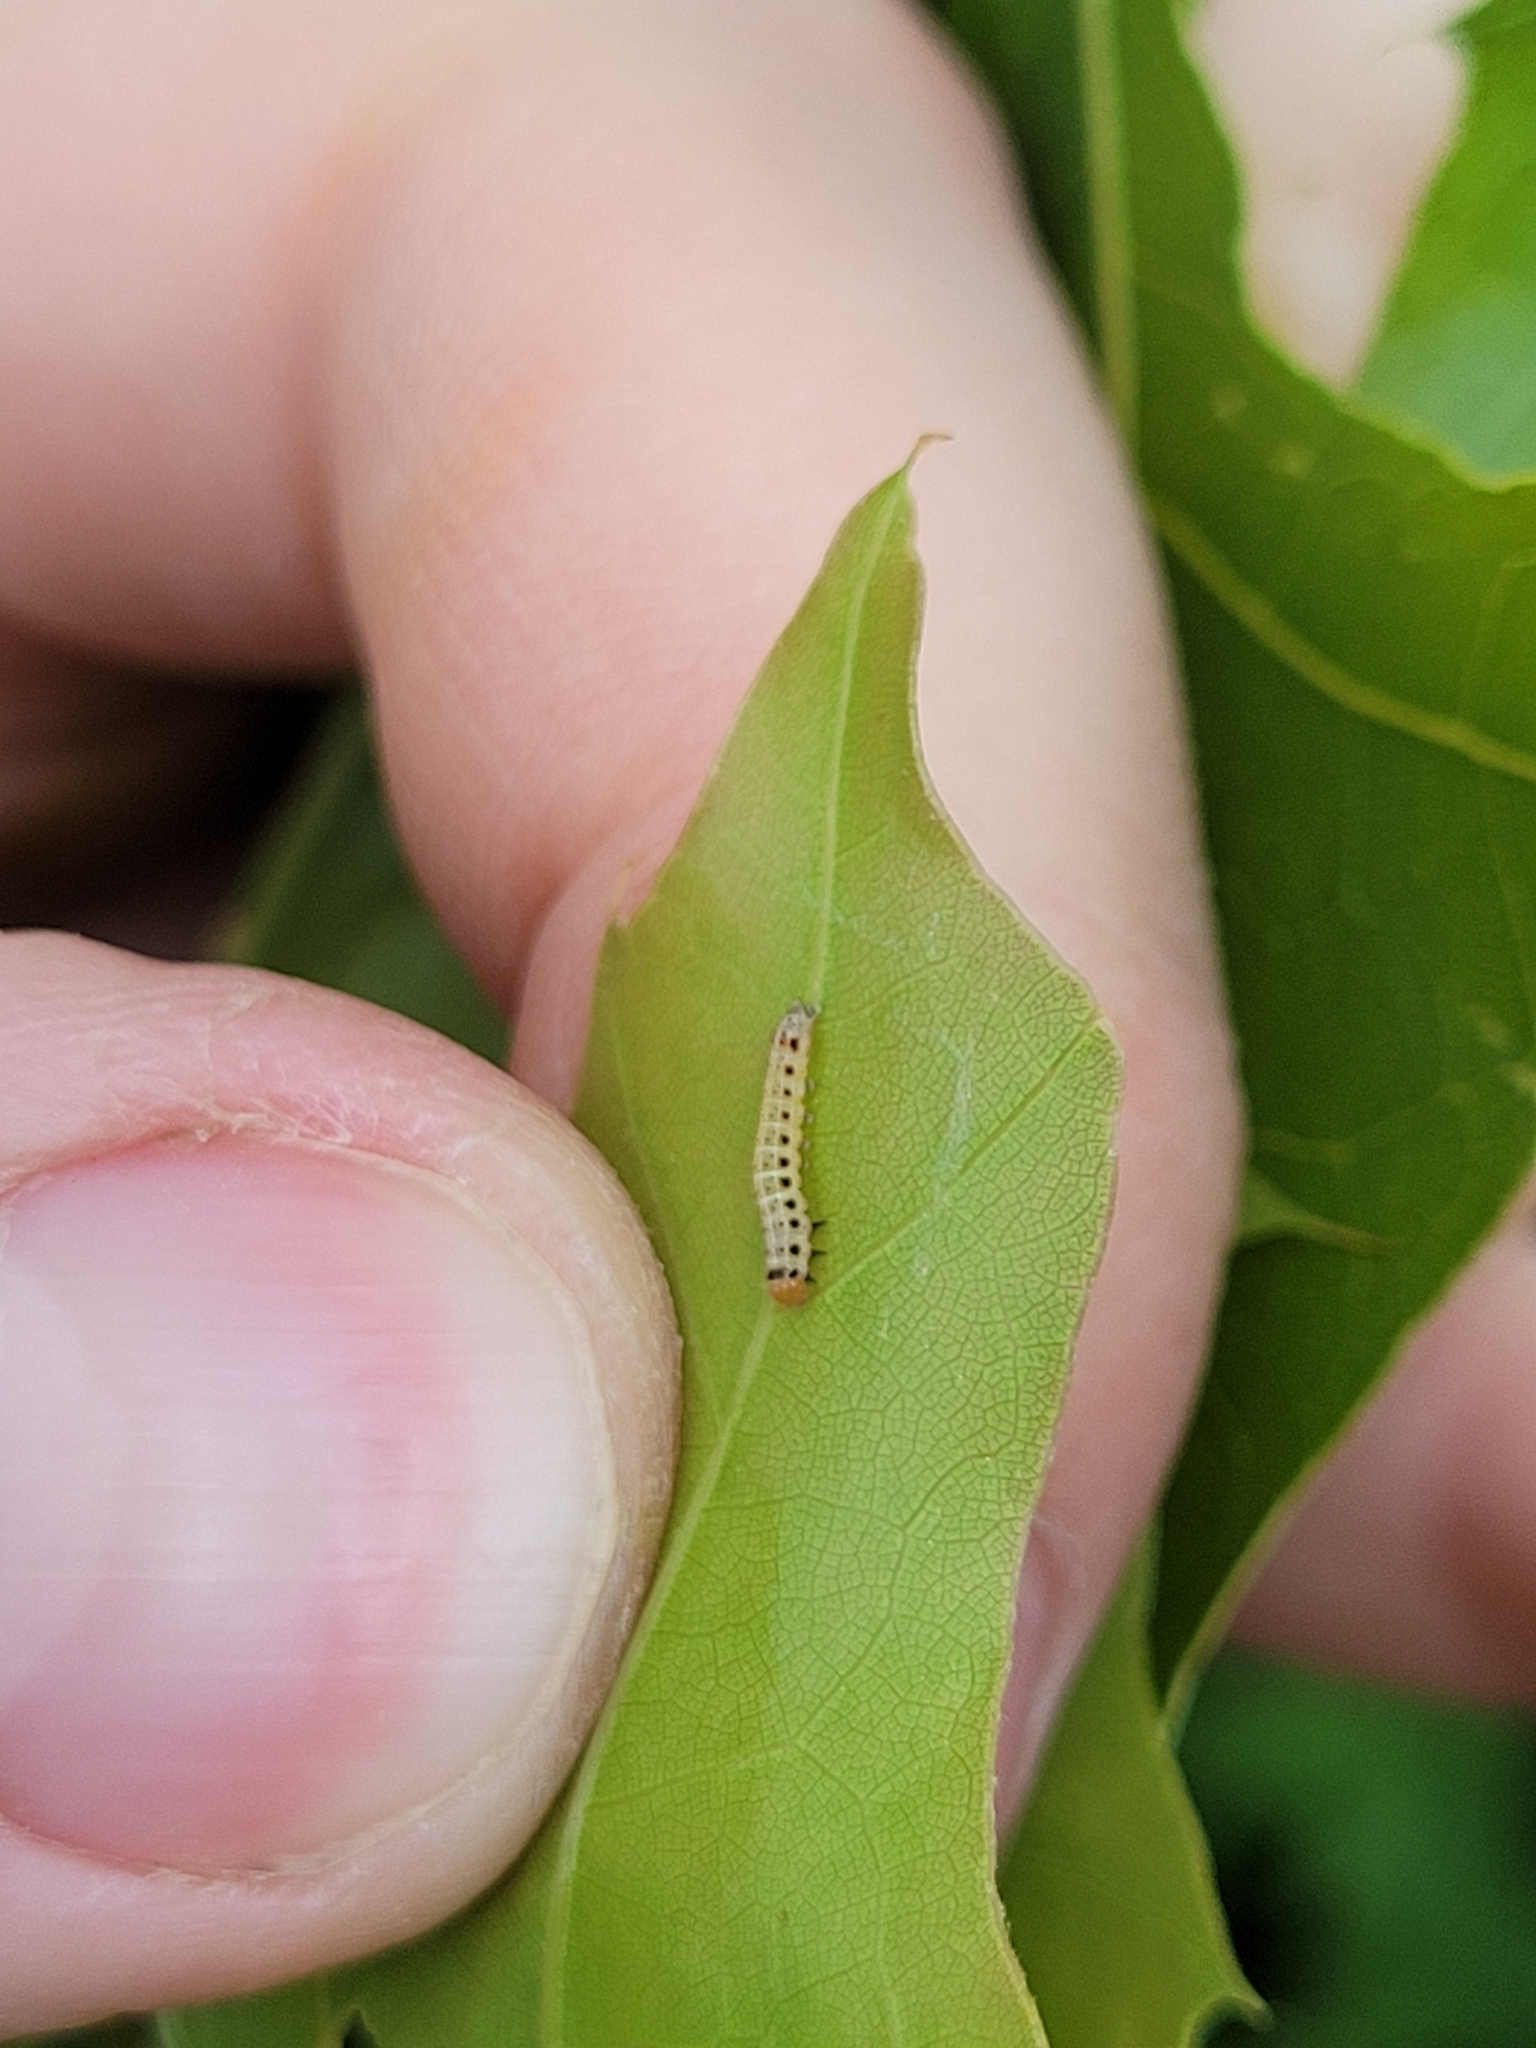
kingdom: Animalia
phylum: Arthropoda
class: Insecta
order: Lepidoptera
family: Noctuidae
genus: Achatia
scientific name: Achatia confusa
